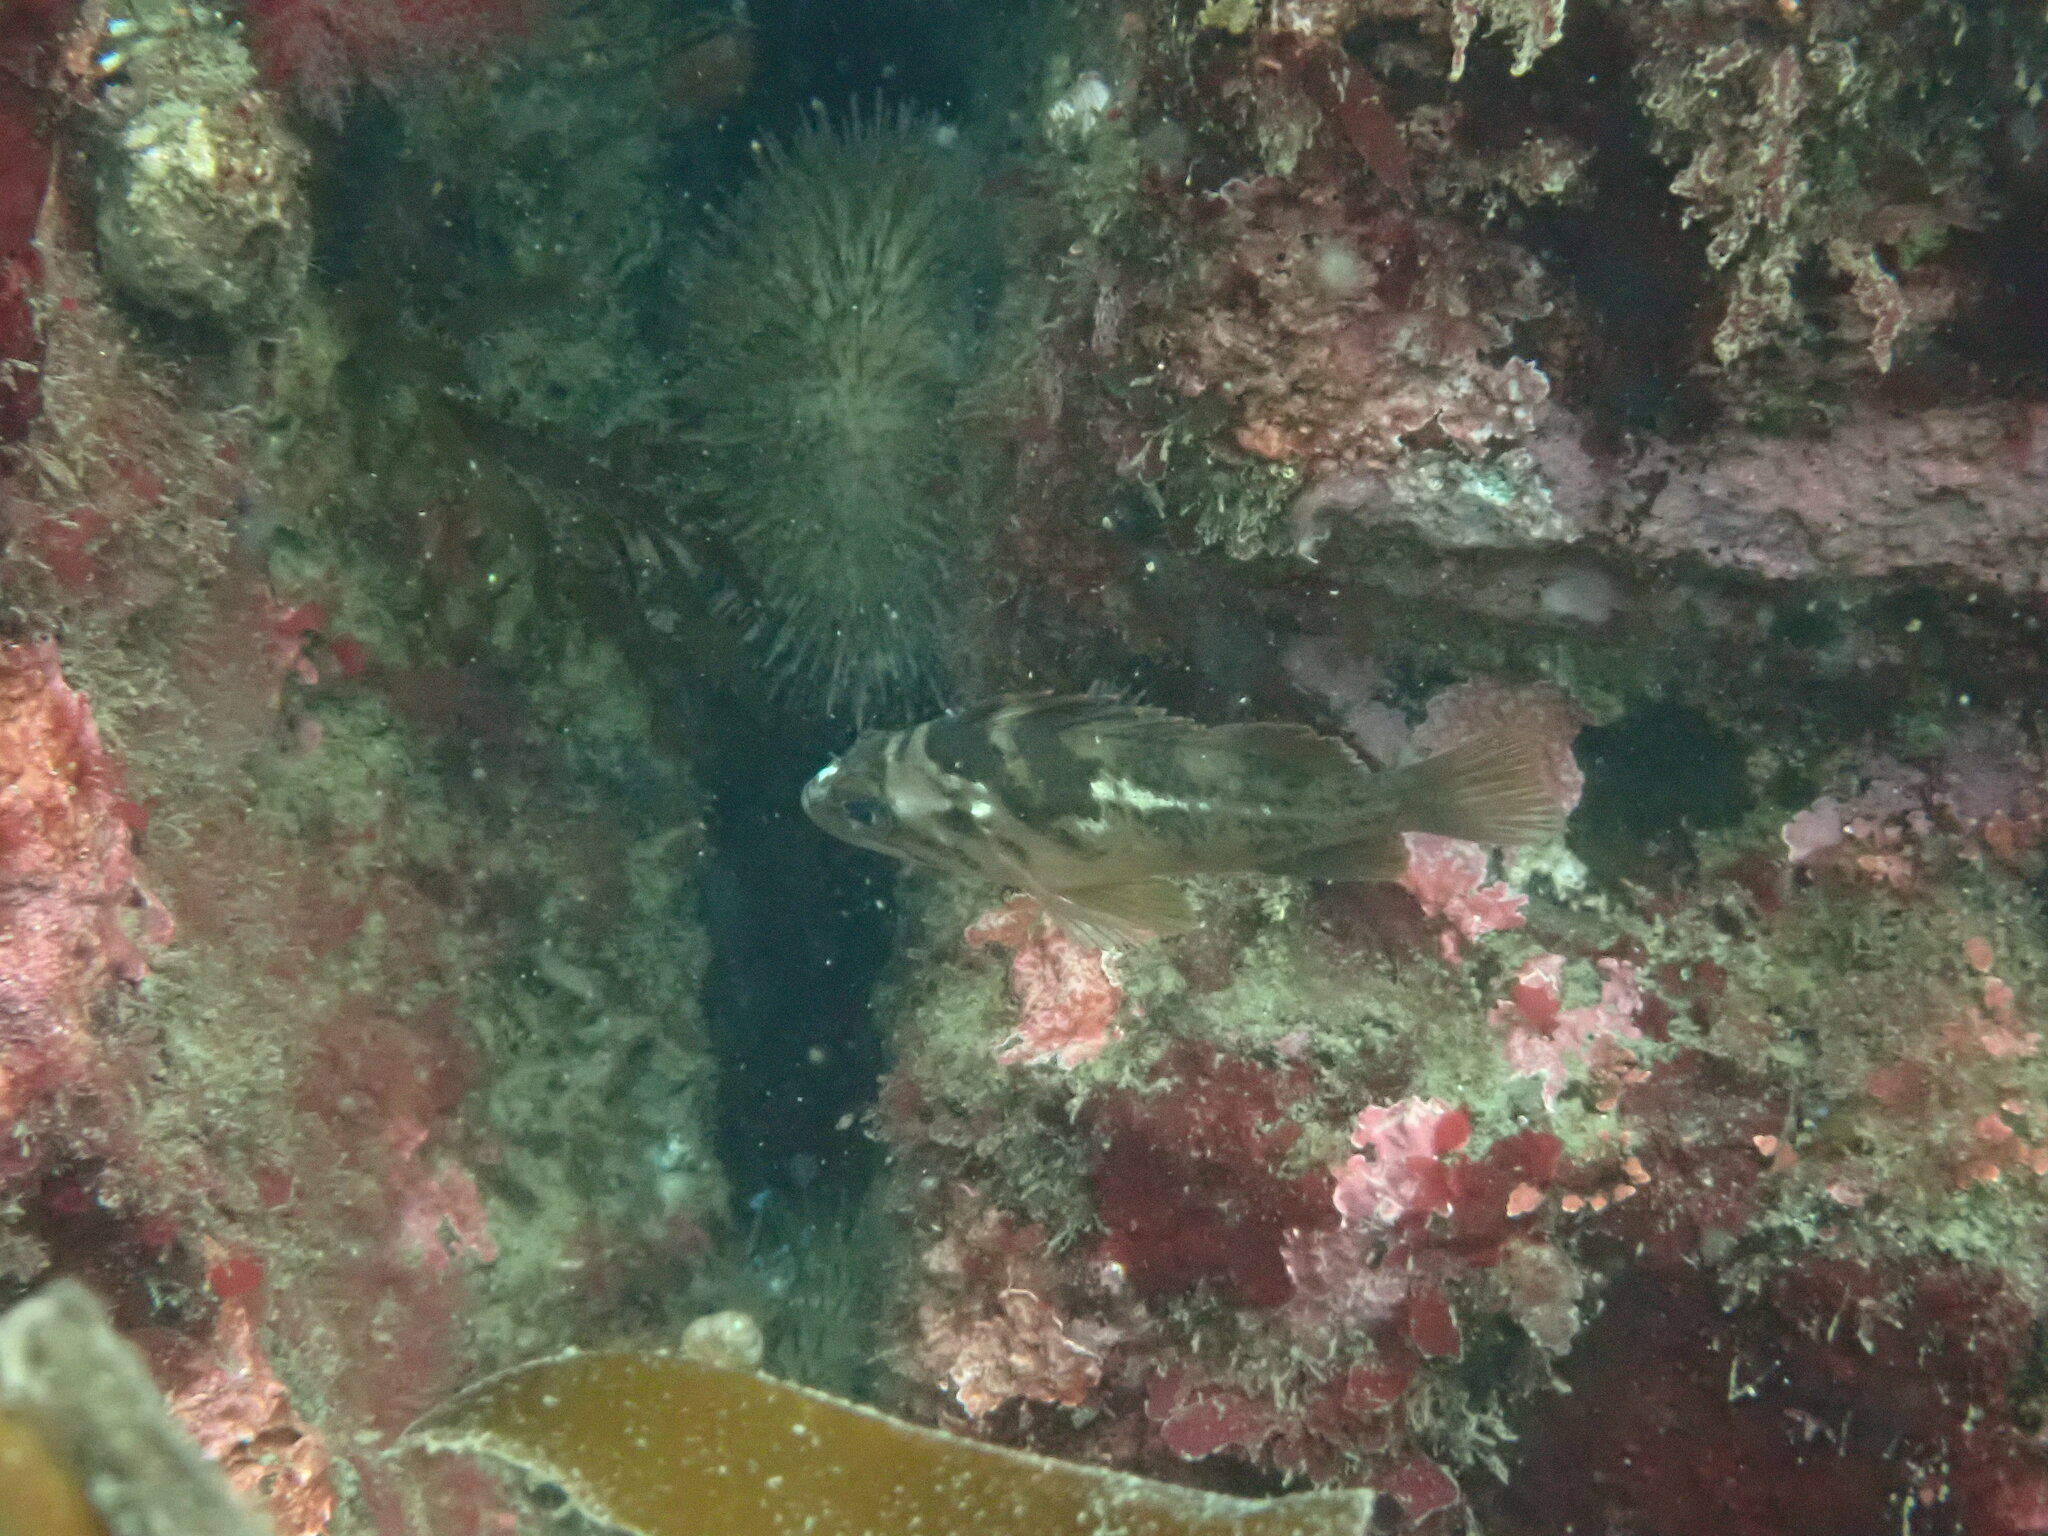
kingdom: Animalia
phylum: Chordata
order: Scorpaeniformes
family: Sebastidae
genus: Sebastes
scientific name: Sebastes caurinus
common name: Copper rockfish
